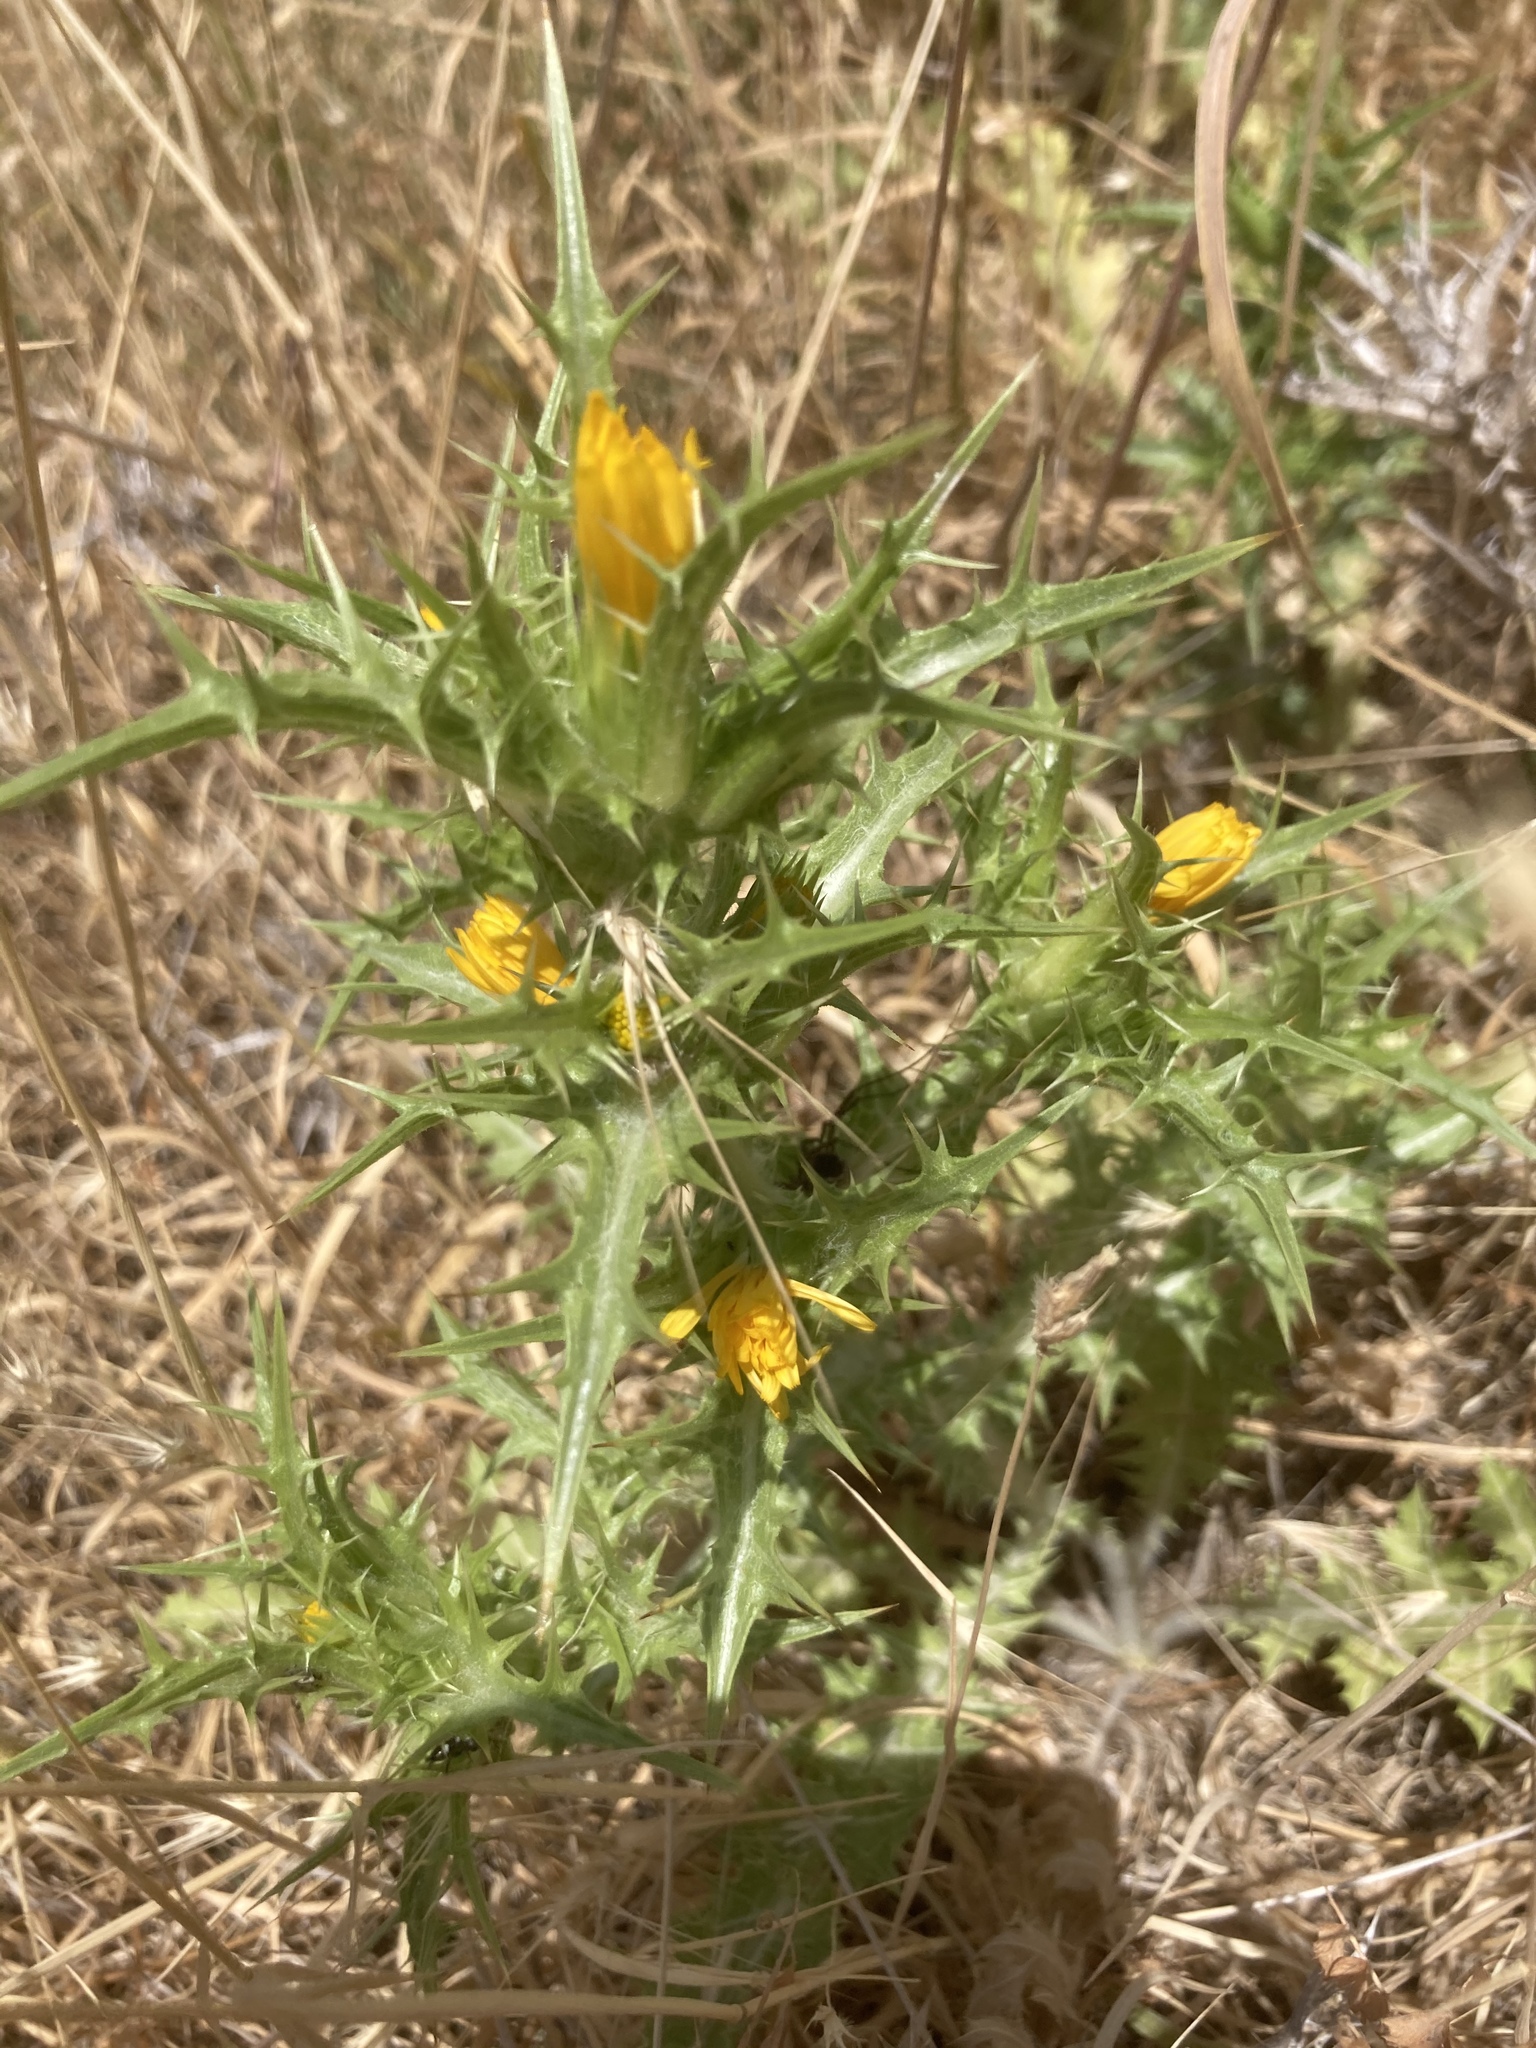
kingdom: Plantae
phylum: Tracheophyta
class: Magnoliopsida
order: Asterales
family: Asteraceae
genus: Scolymus
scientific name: Scolymus hispanicus
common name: Golden thistle
